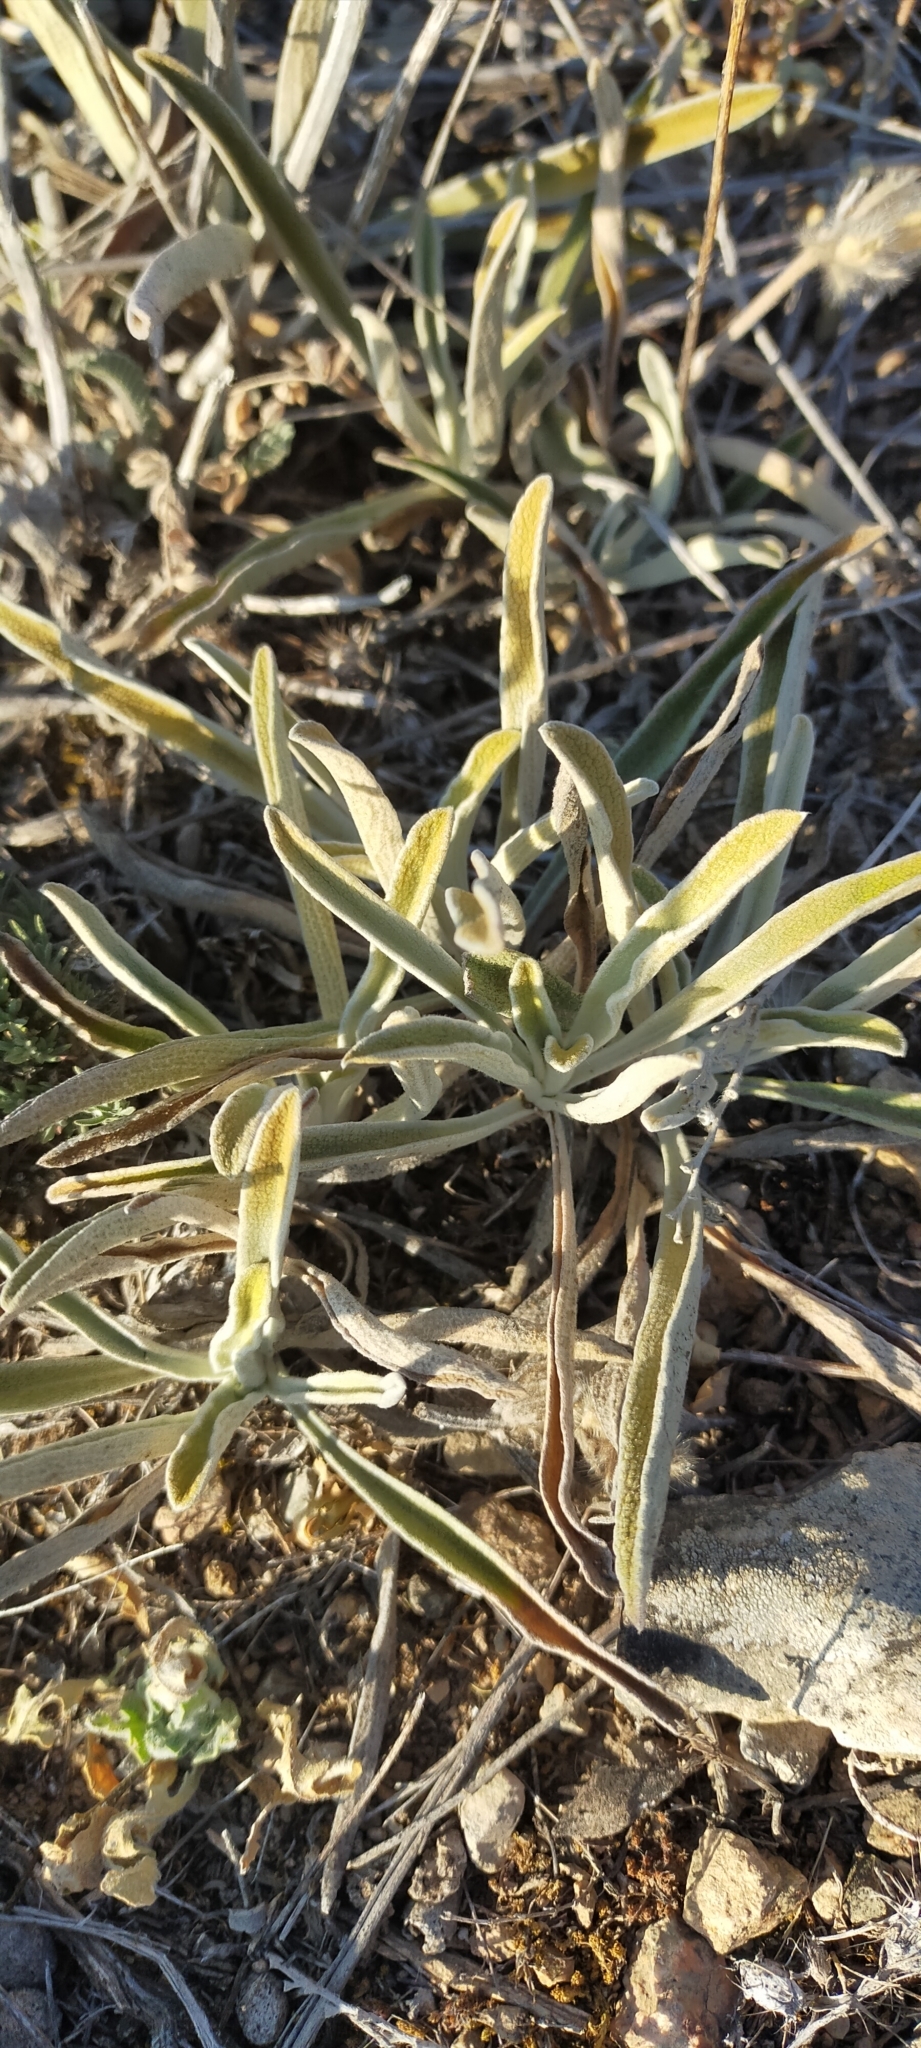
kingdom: Plantae
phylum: Tracheophyta
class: Magnoliopsida
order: Lamiales
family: Lamiaceae
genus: Phlomis
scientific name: Phlomis lychnitis
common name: Lampwickplant
